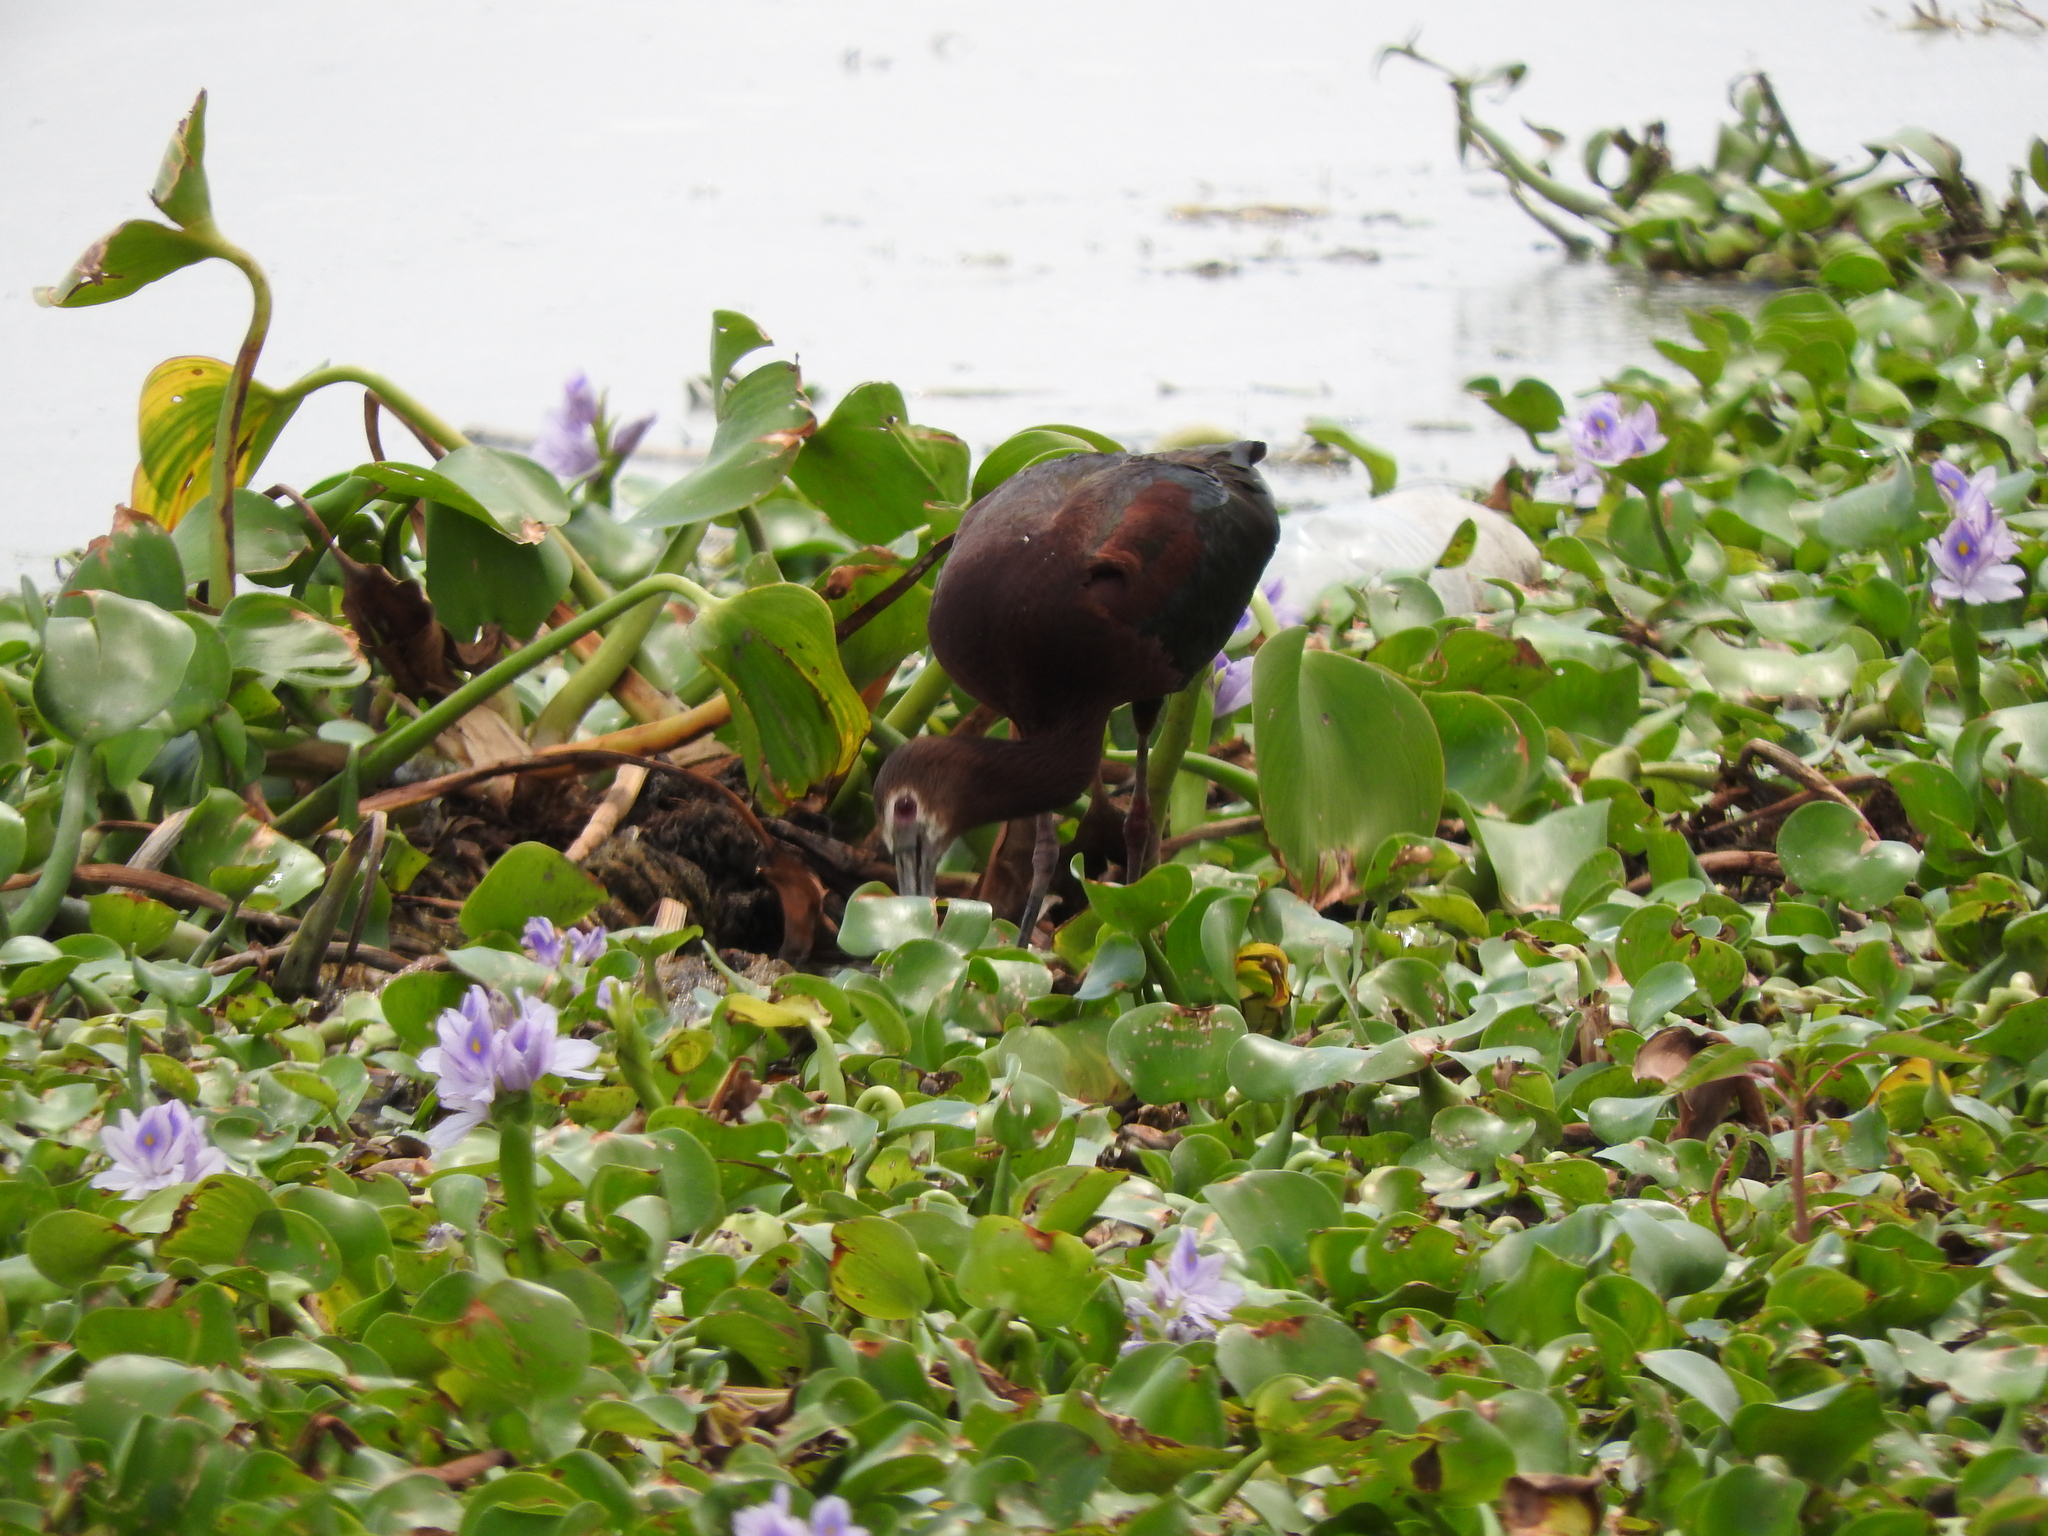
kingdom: Animalia
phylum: Chordata
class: Aves
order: Pelecaniformes
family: Threskiornithidae
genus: Plegadis
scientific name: Plegadis chihi
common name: White-faced ibis
